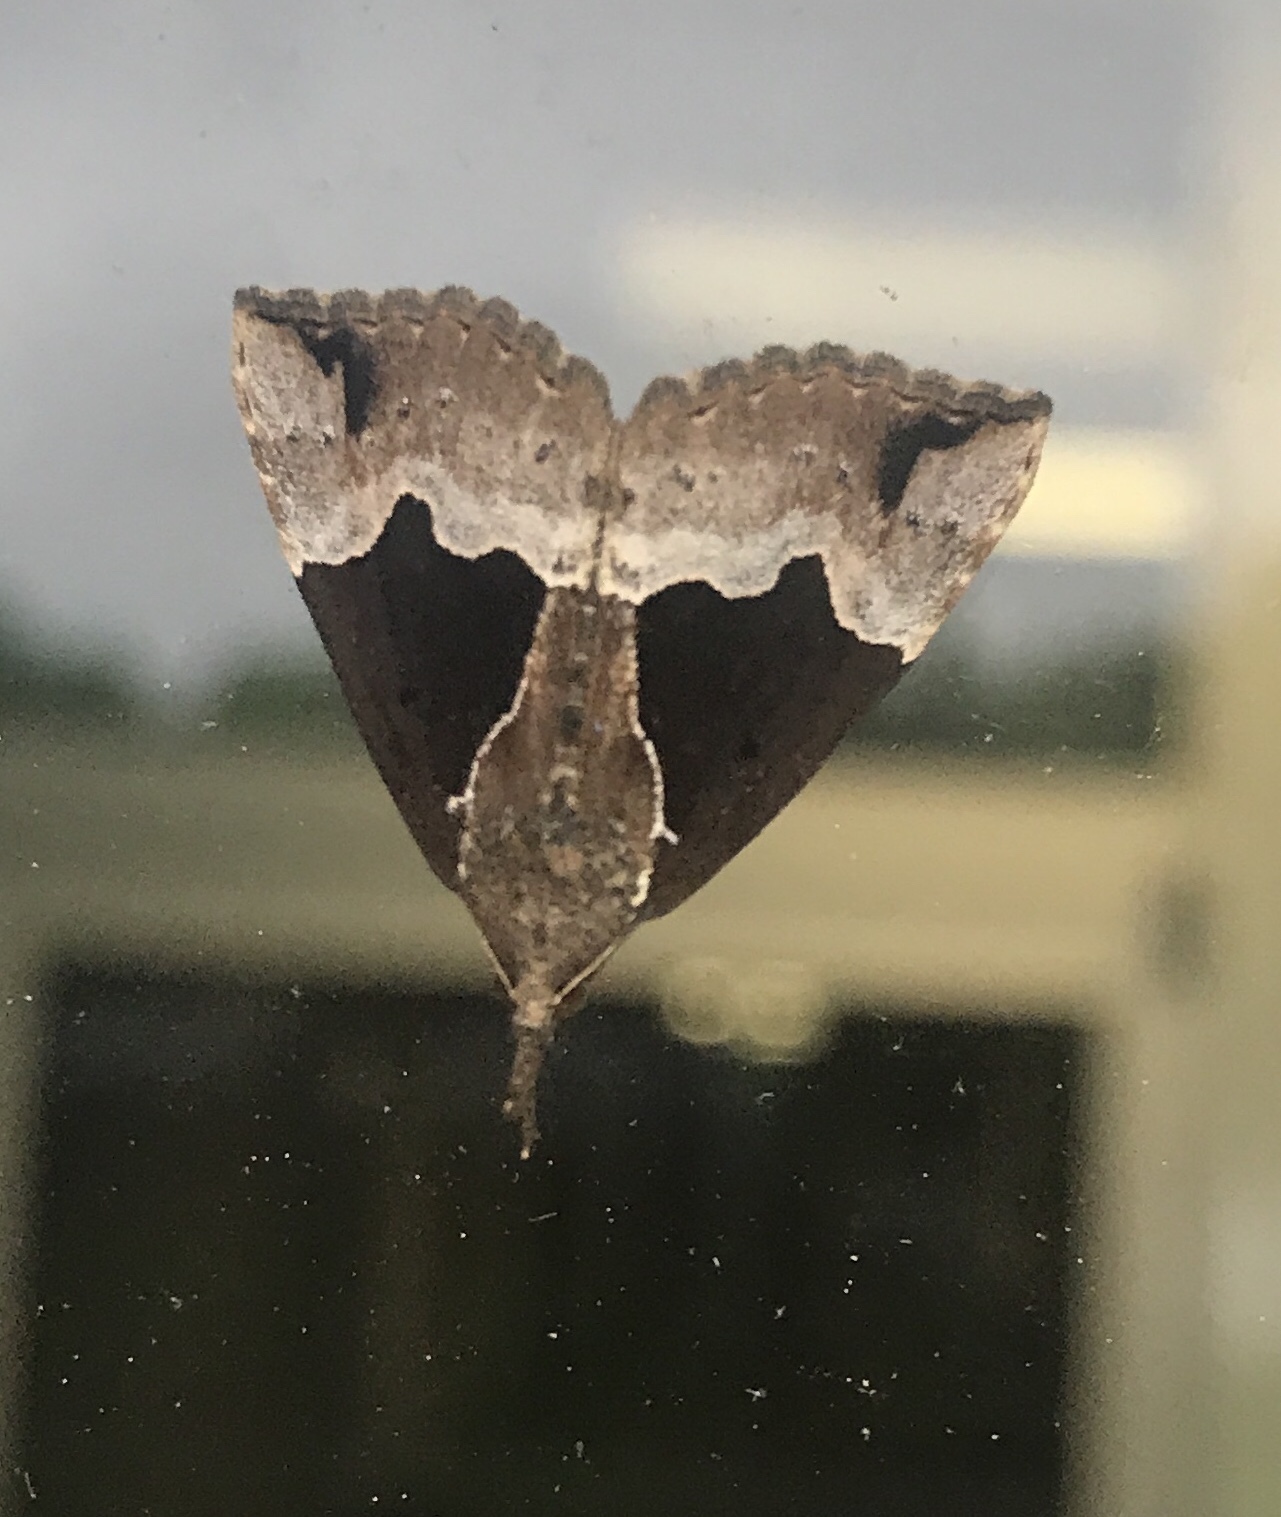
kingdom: Animalia
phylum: Arthropoda
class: Insecta
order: Lepidoptera
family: Erebidae
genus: Hypena
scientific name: Hypena bijugalis
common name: Dimorphic bomolocha moth
